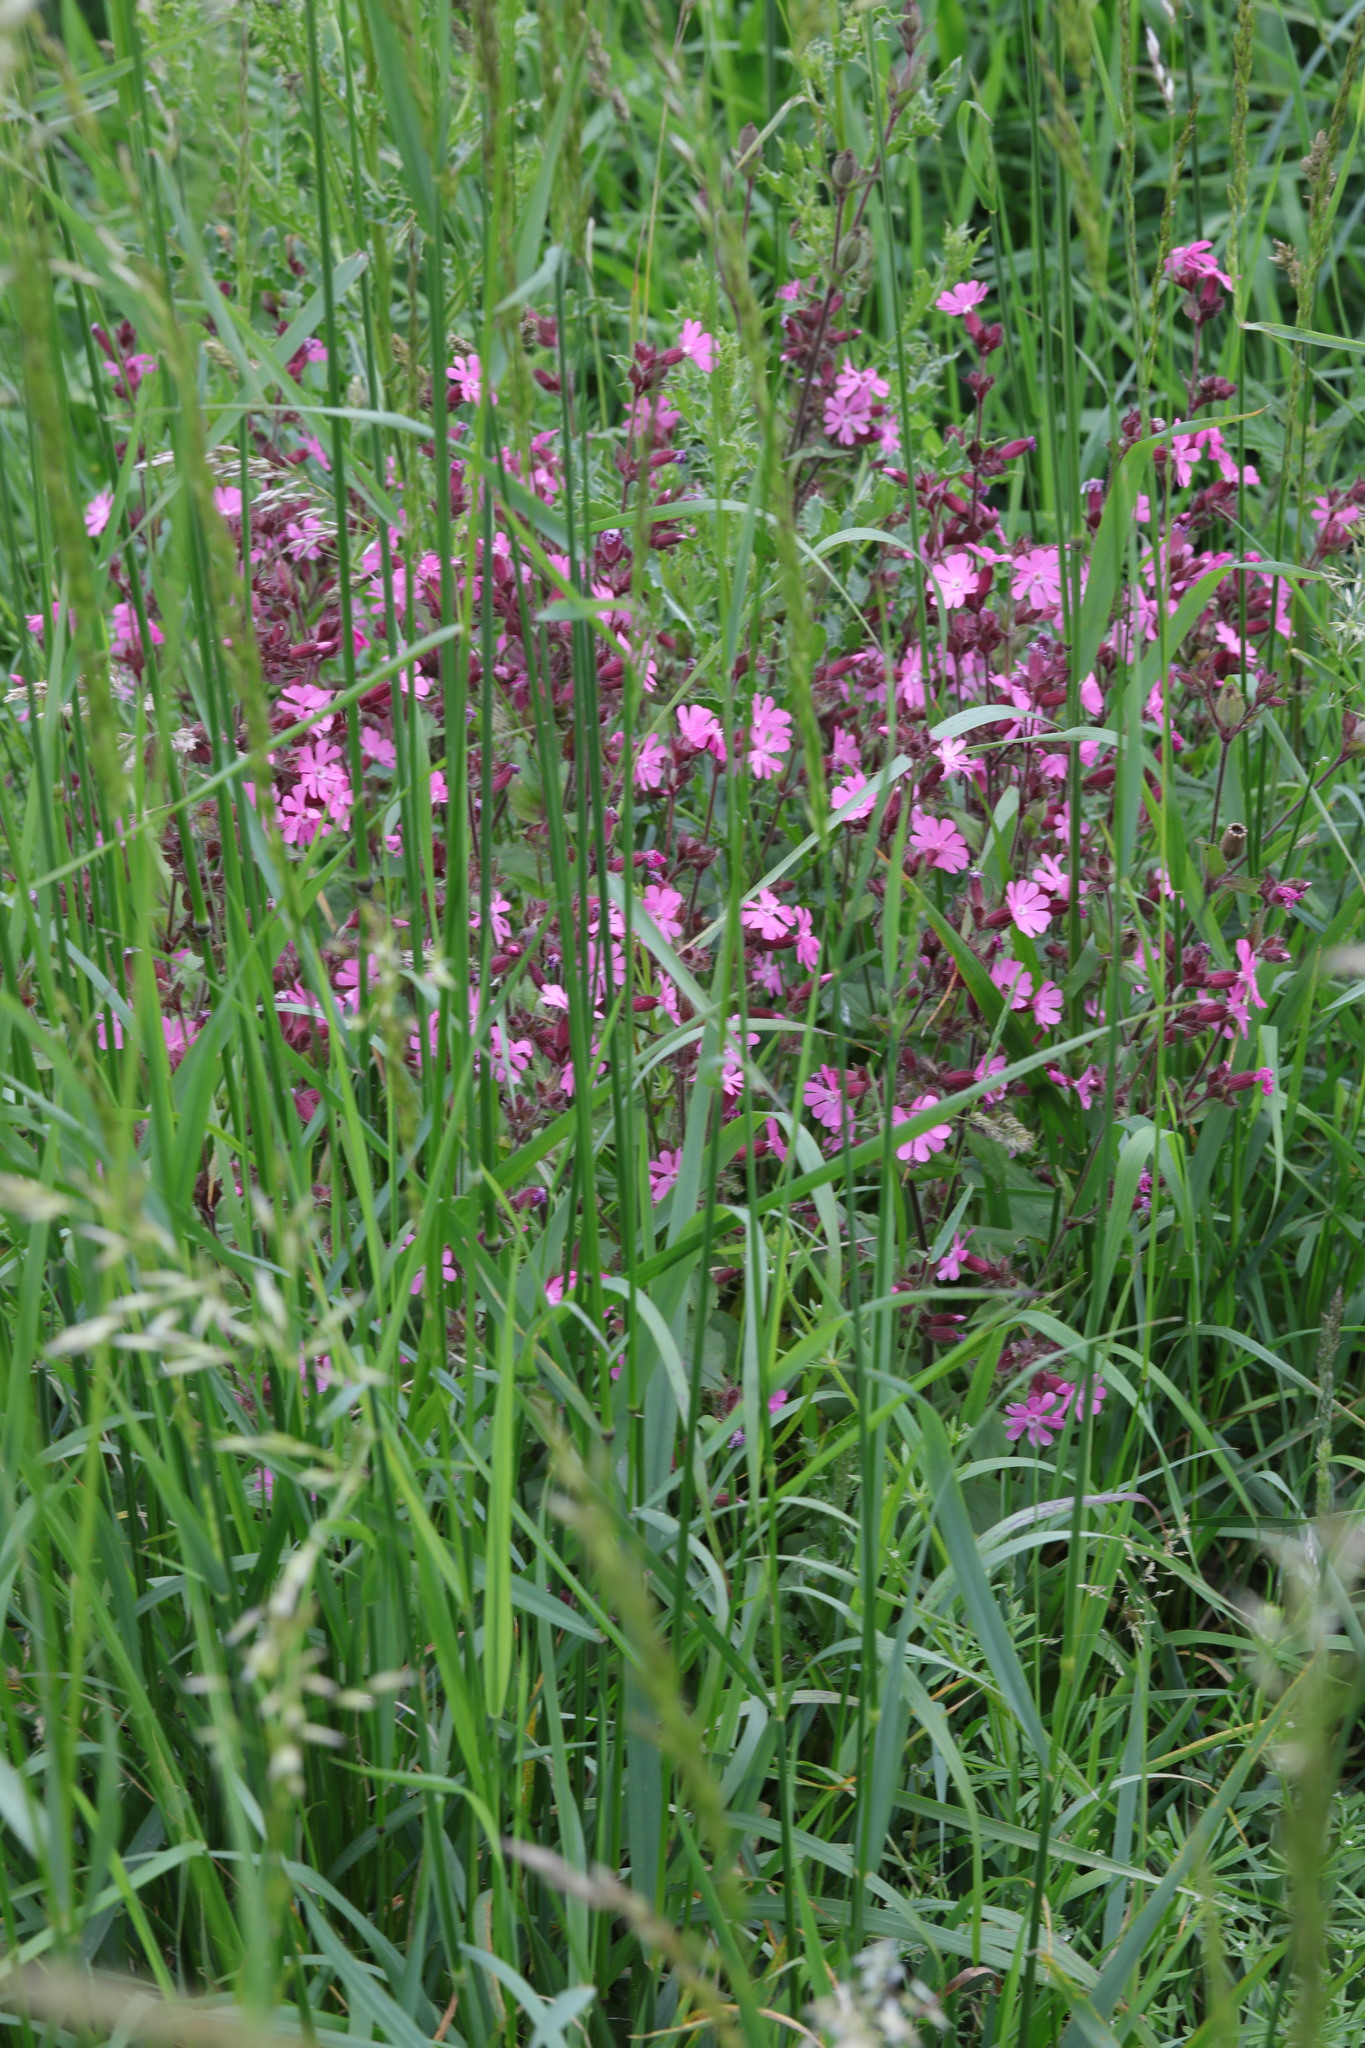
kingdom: Plantae
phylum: Tracheophyta
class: Magnoliopsida
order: Caryophyllales
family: Caryophyllaceae
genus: Silene
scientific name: Silene dioica
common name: Red campion
